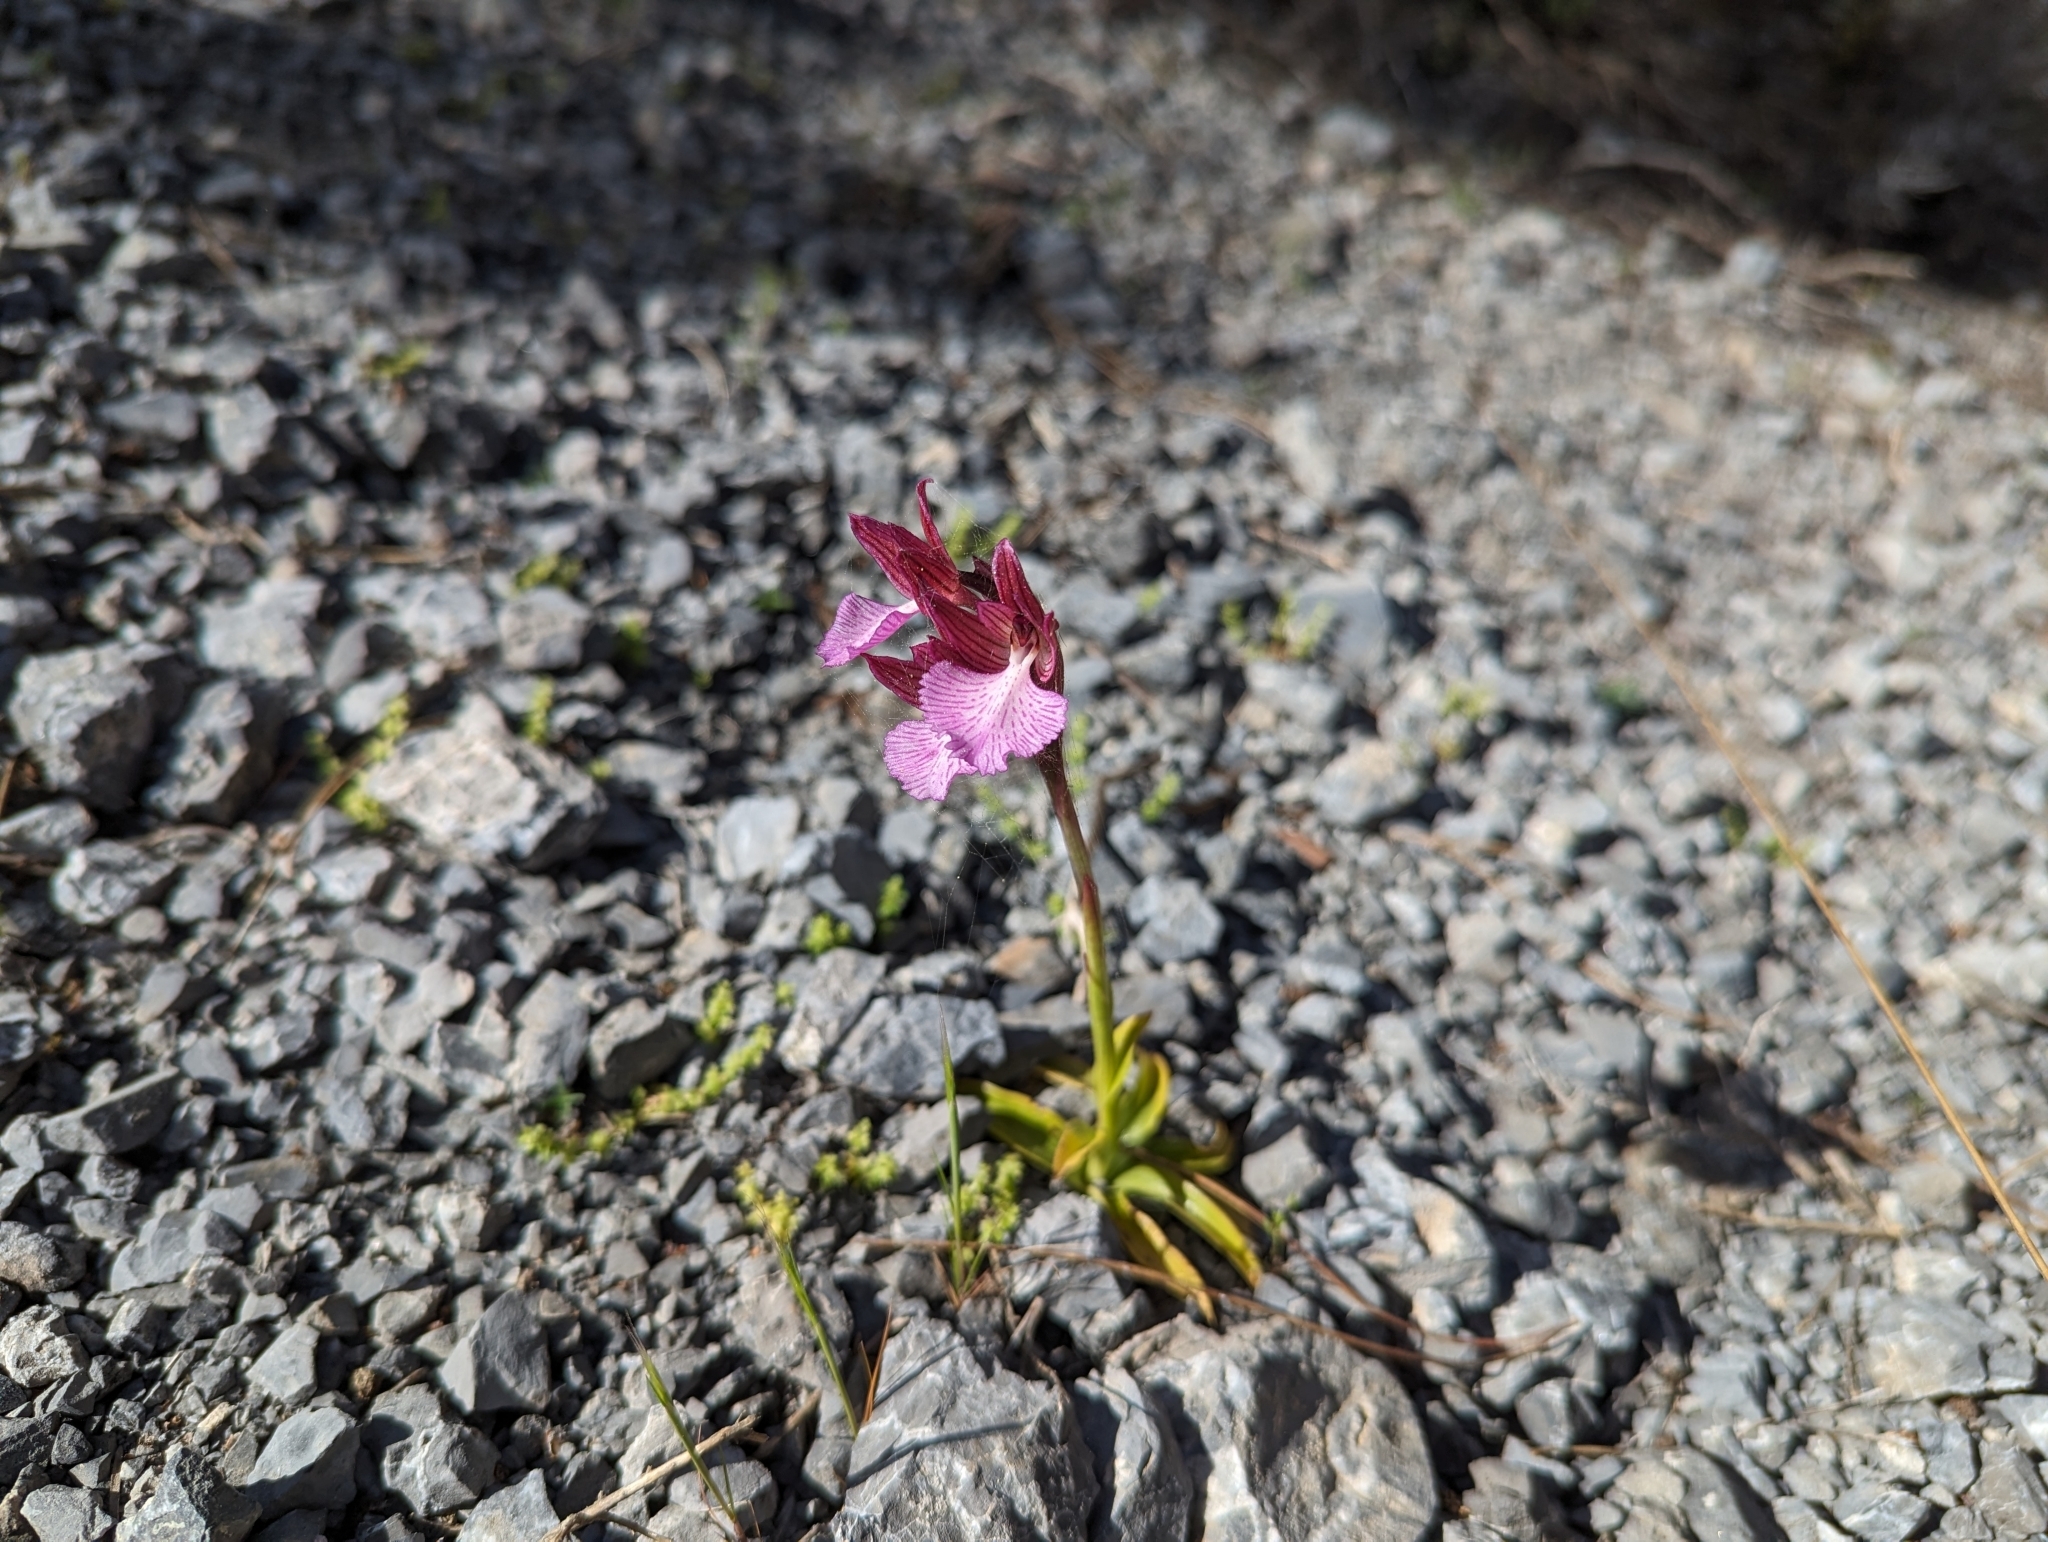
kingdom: Plantae
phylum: Tracheophyta
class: Liliopsida
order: Asparagales
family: Orchidaceae
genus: Anacamptis
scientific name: Anacamptis papilionacea
